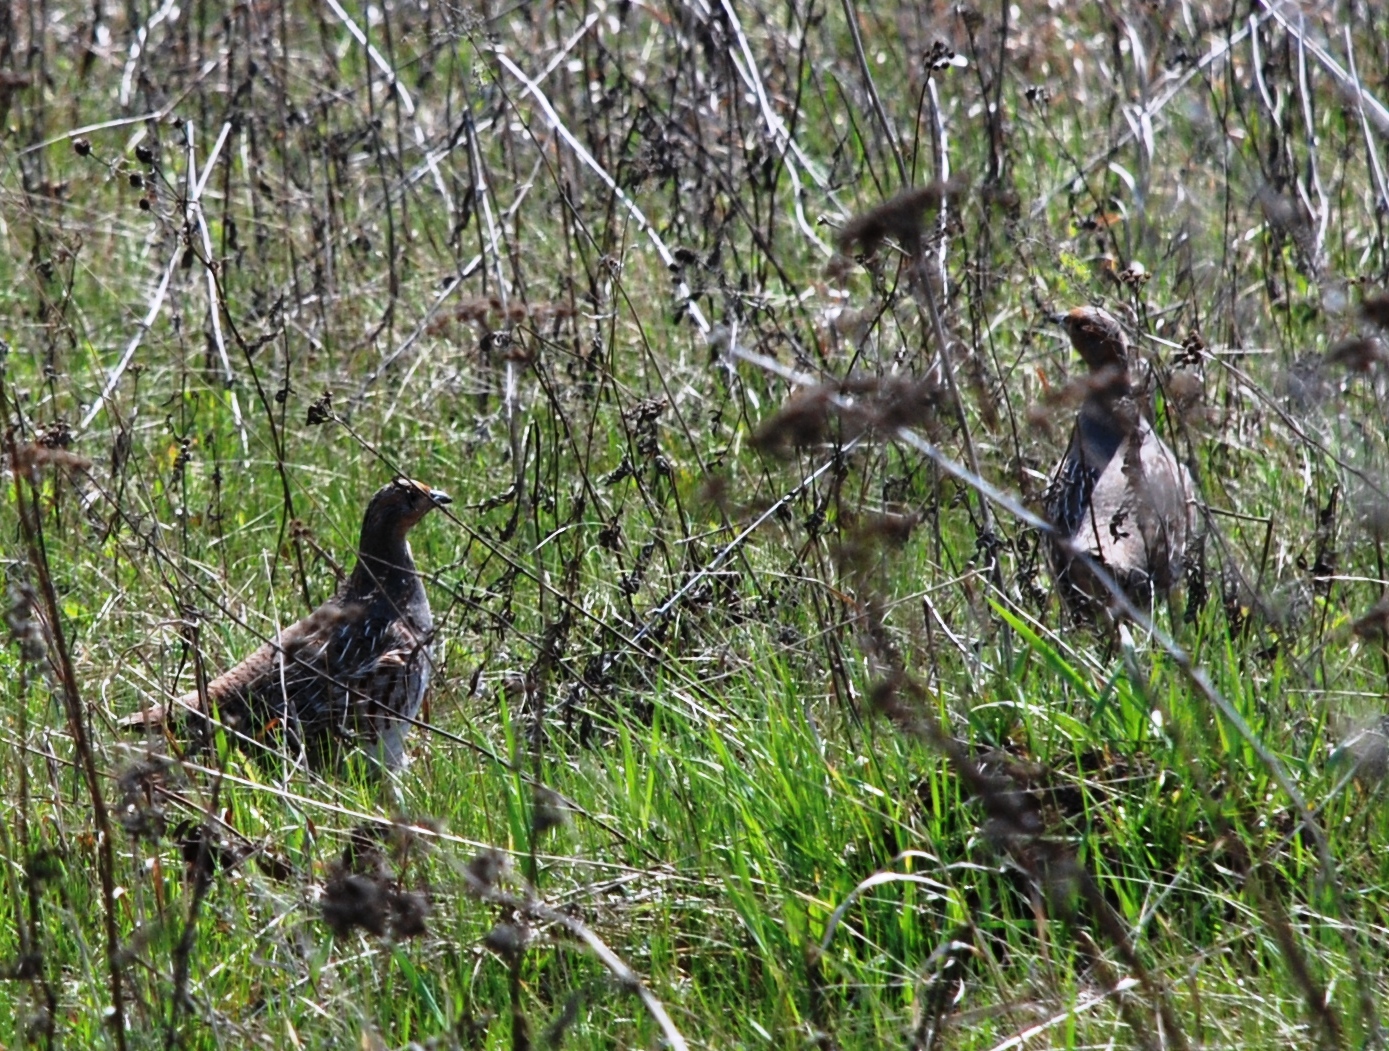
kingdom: Animalia
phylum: Chordata
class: Aves
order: Galliformes
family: Phasianidae
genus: Perdix
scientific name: Perdix perdix
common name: Grey partridge
